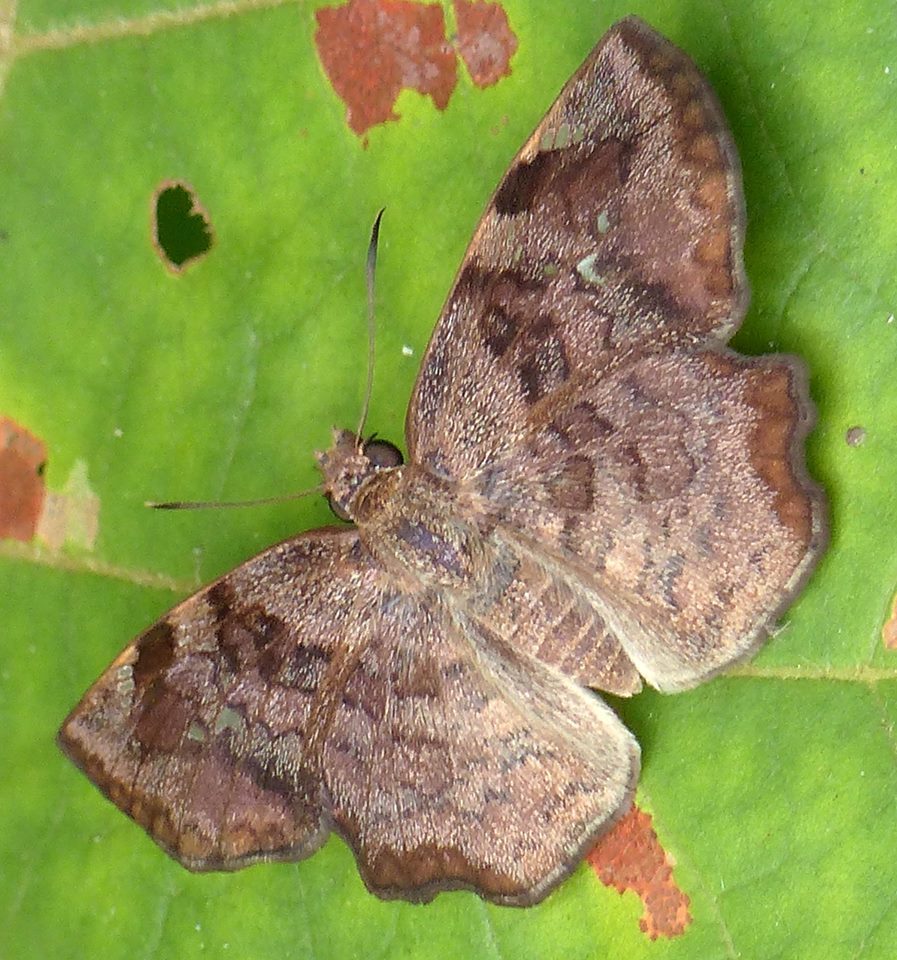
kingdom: Animalia
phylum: Arthropoda
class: Insecta
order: Lepidoptera
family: Hesperiidae
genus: Antigonus
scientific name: Antigonus erosus
